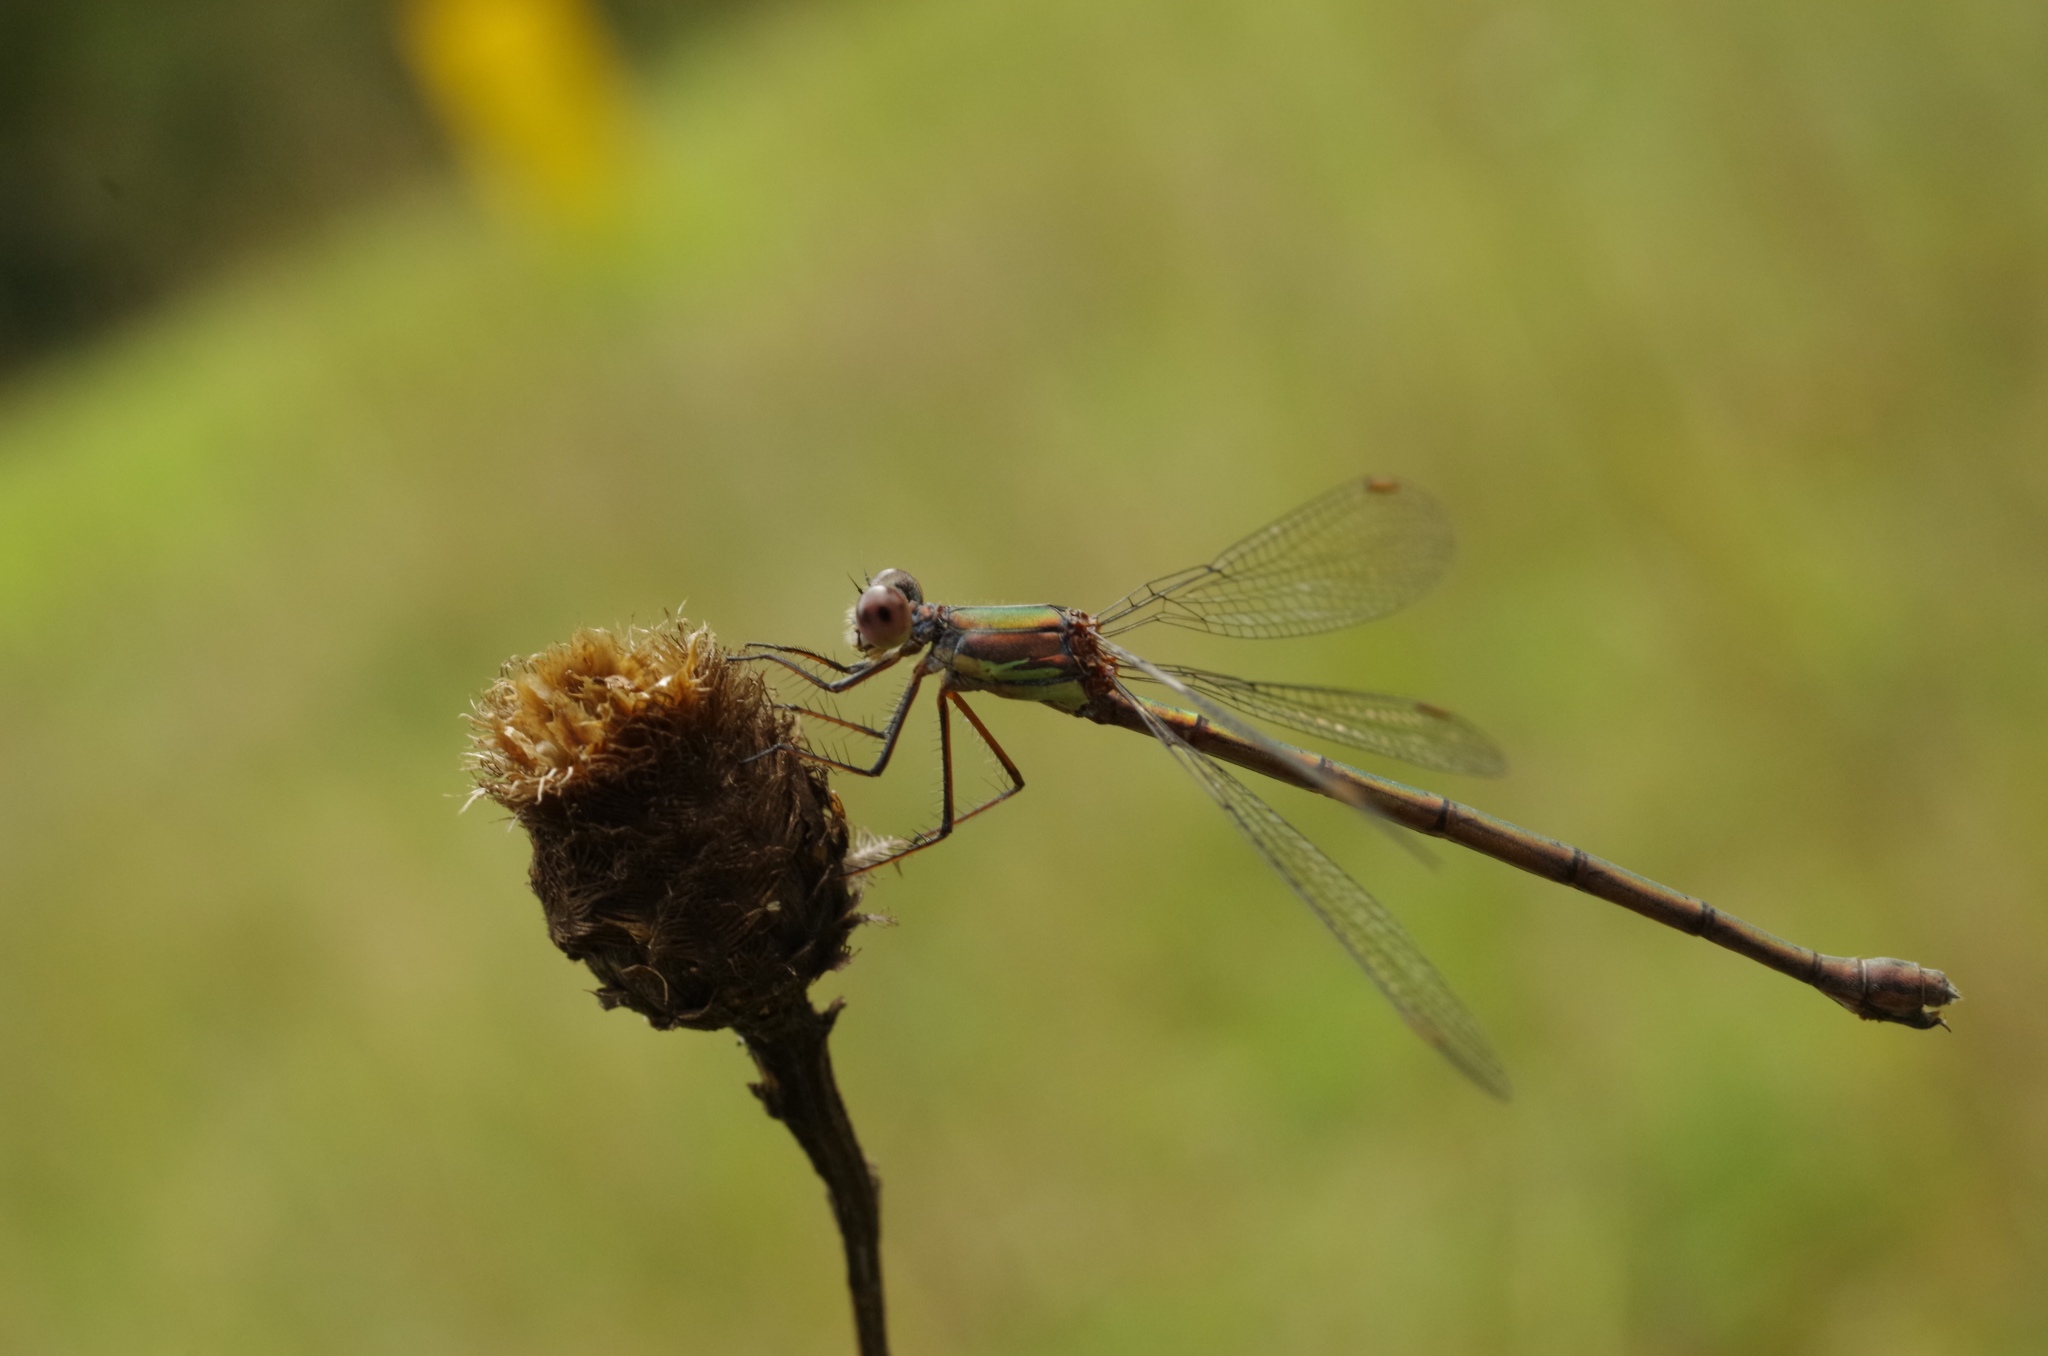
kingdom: Animalia
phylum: Arthropoda
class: Insecta
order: Odonata
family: Lestidae
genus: Chalcolestes
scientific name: Chalcolestes viridis
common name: Green emerald damselfly
